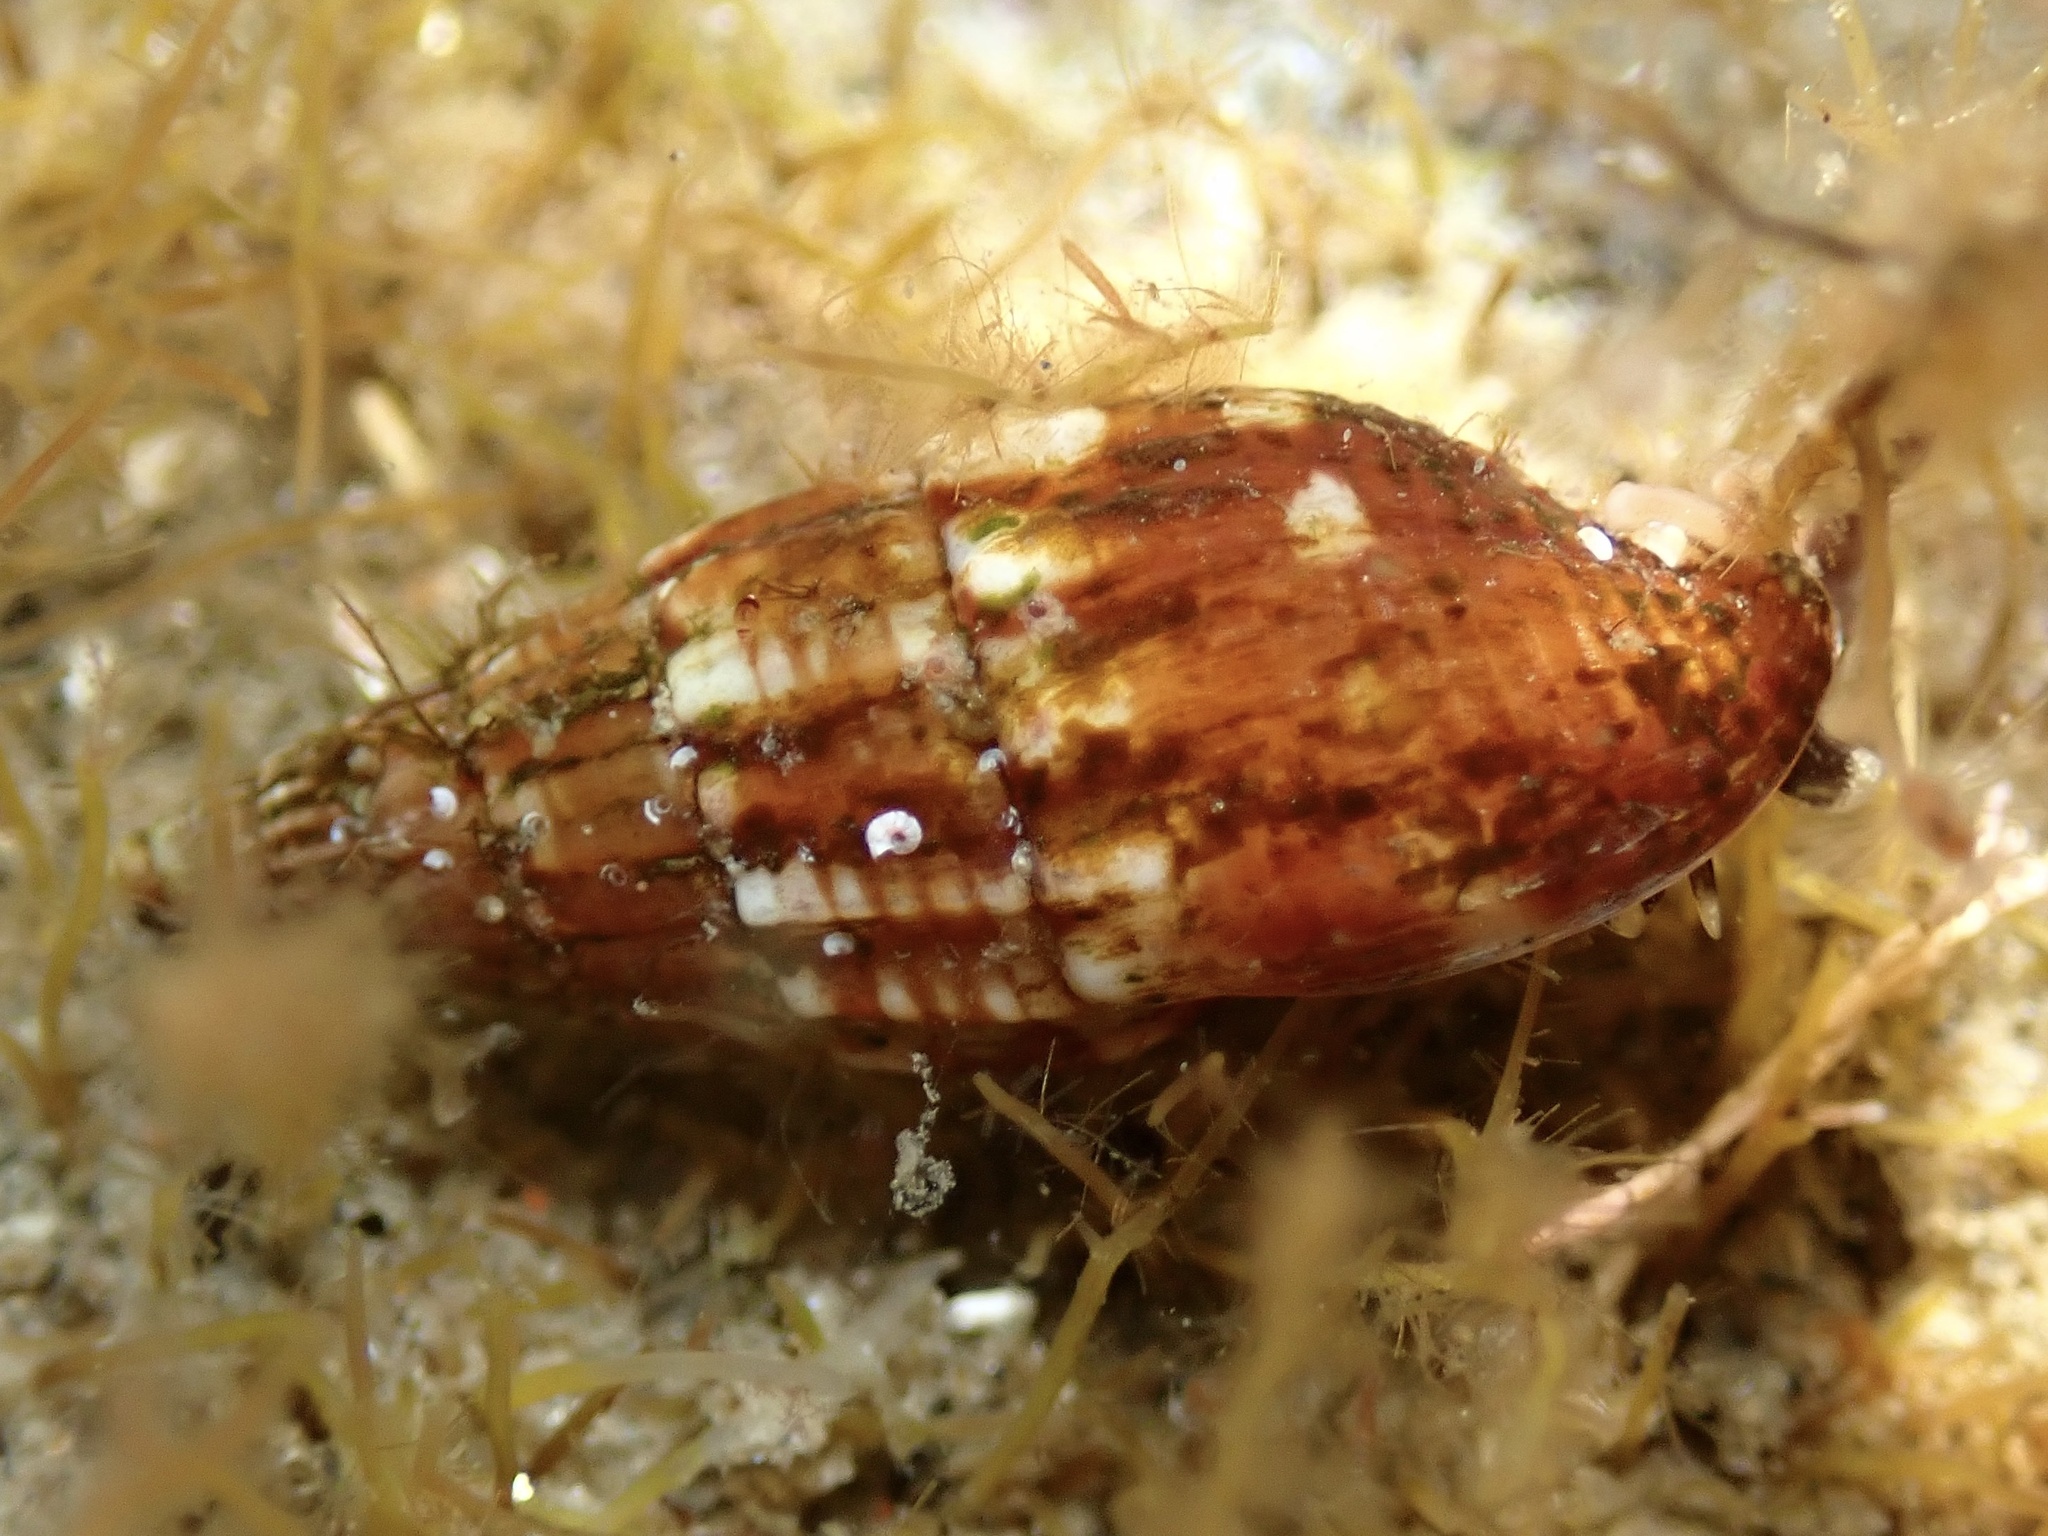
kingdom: Animalia
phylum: Mollusca
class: Gastropoda
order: Neogastropoda
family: Columbellidae
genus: Costoanachis
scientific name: Costoanachis translirata
